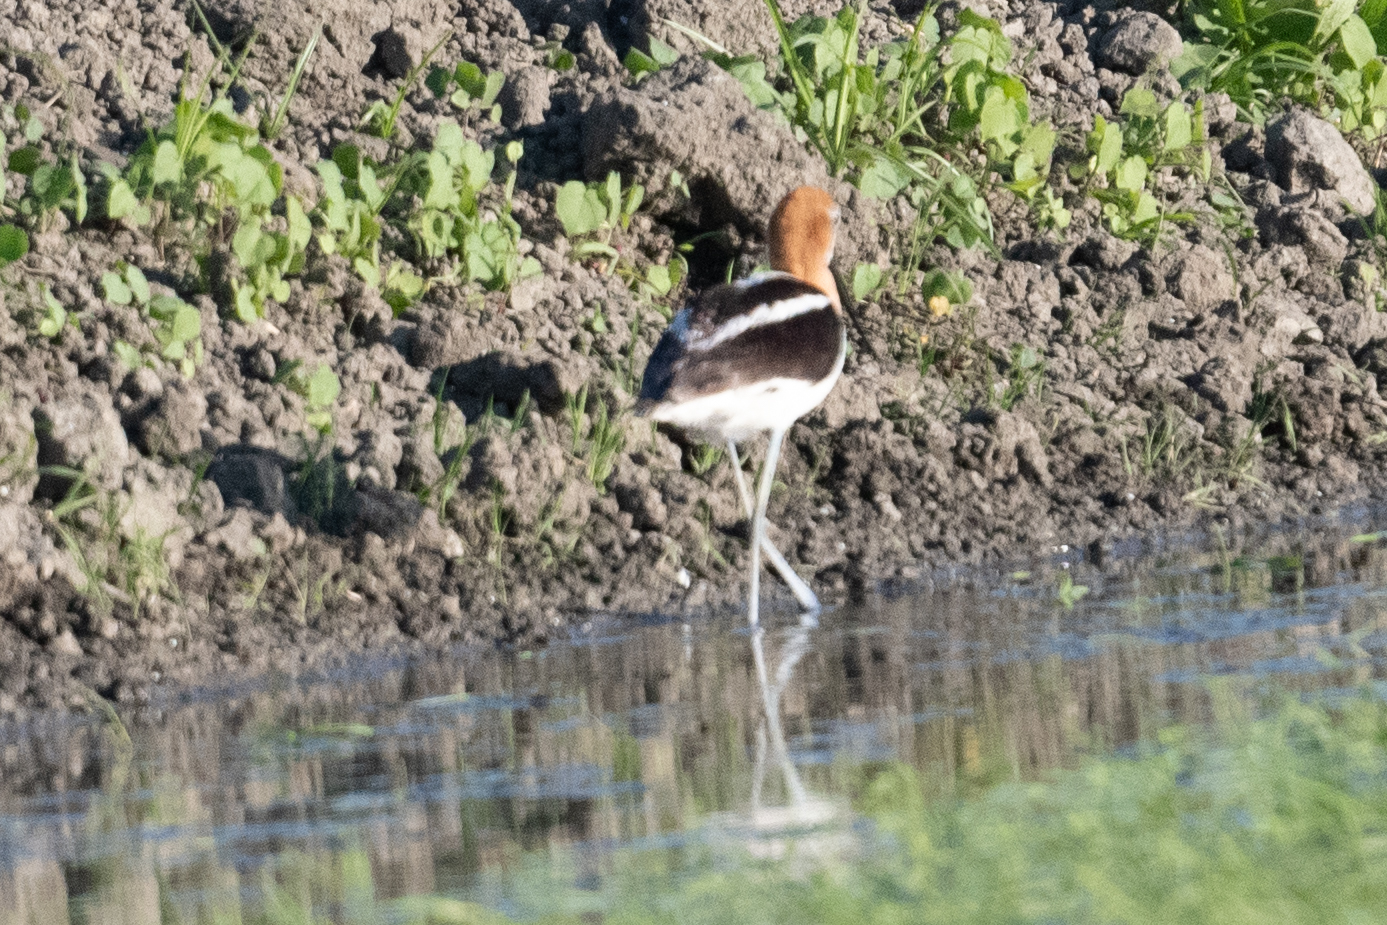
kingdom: Animalia
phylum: Chordata
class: Aves
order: Charadriiformes
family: Recurvirostridae
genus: Recurvirostra
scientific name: Recurvirostra americana
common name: American avocet
